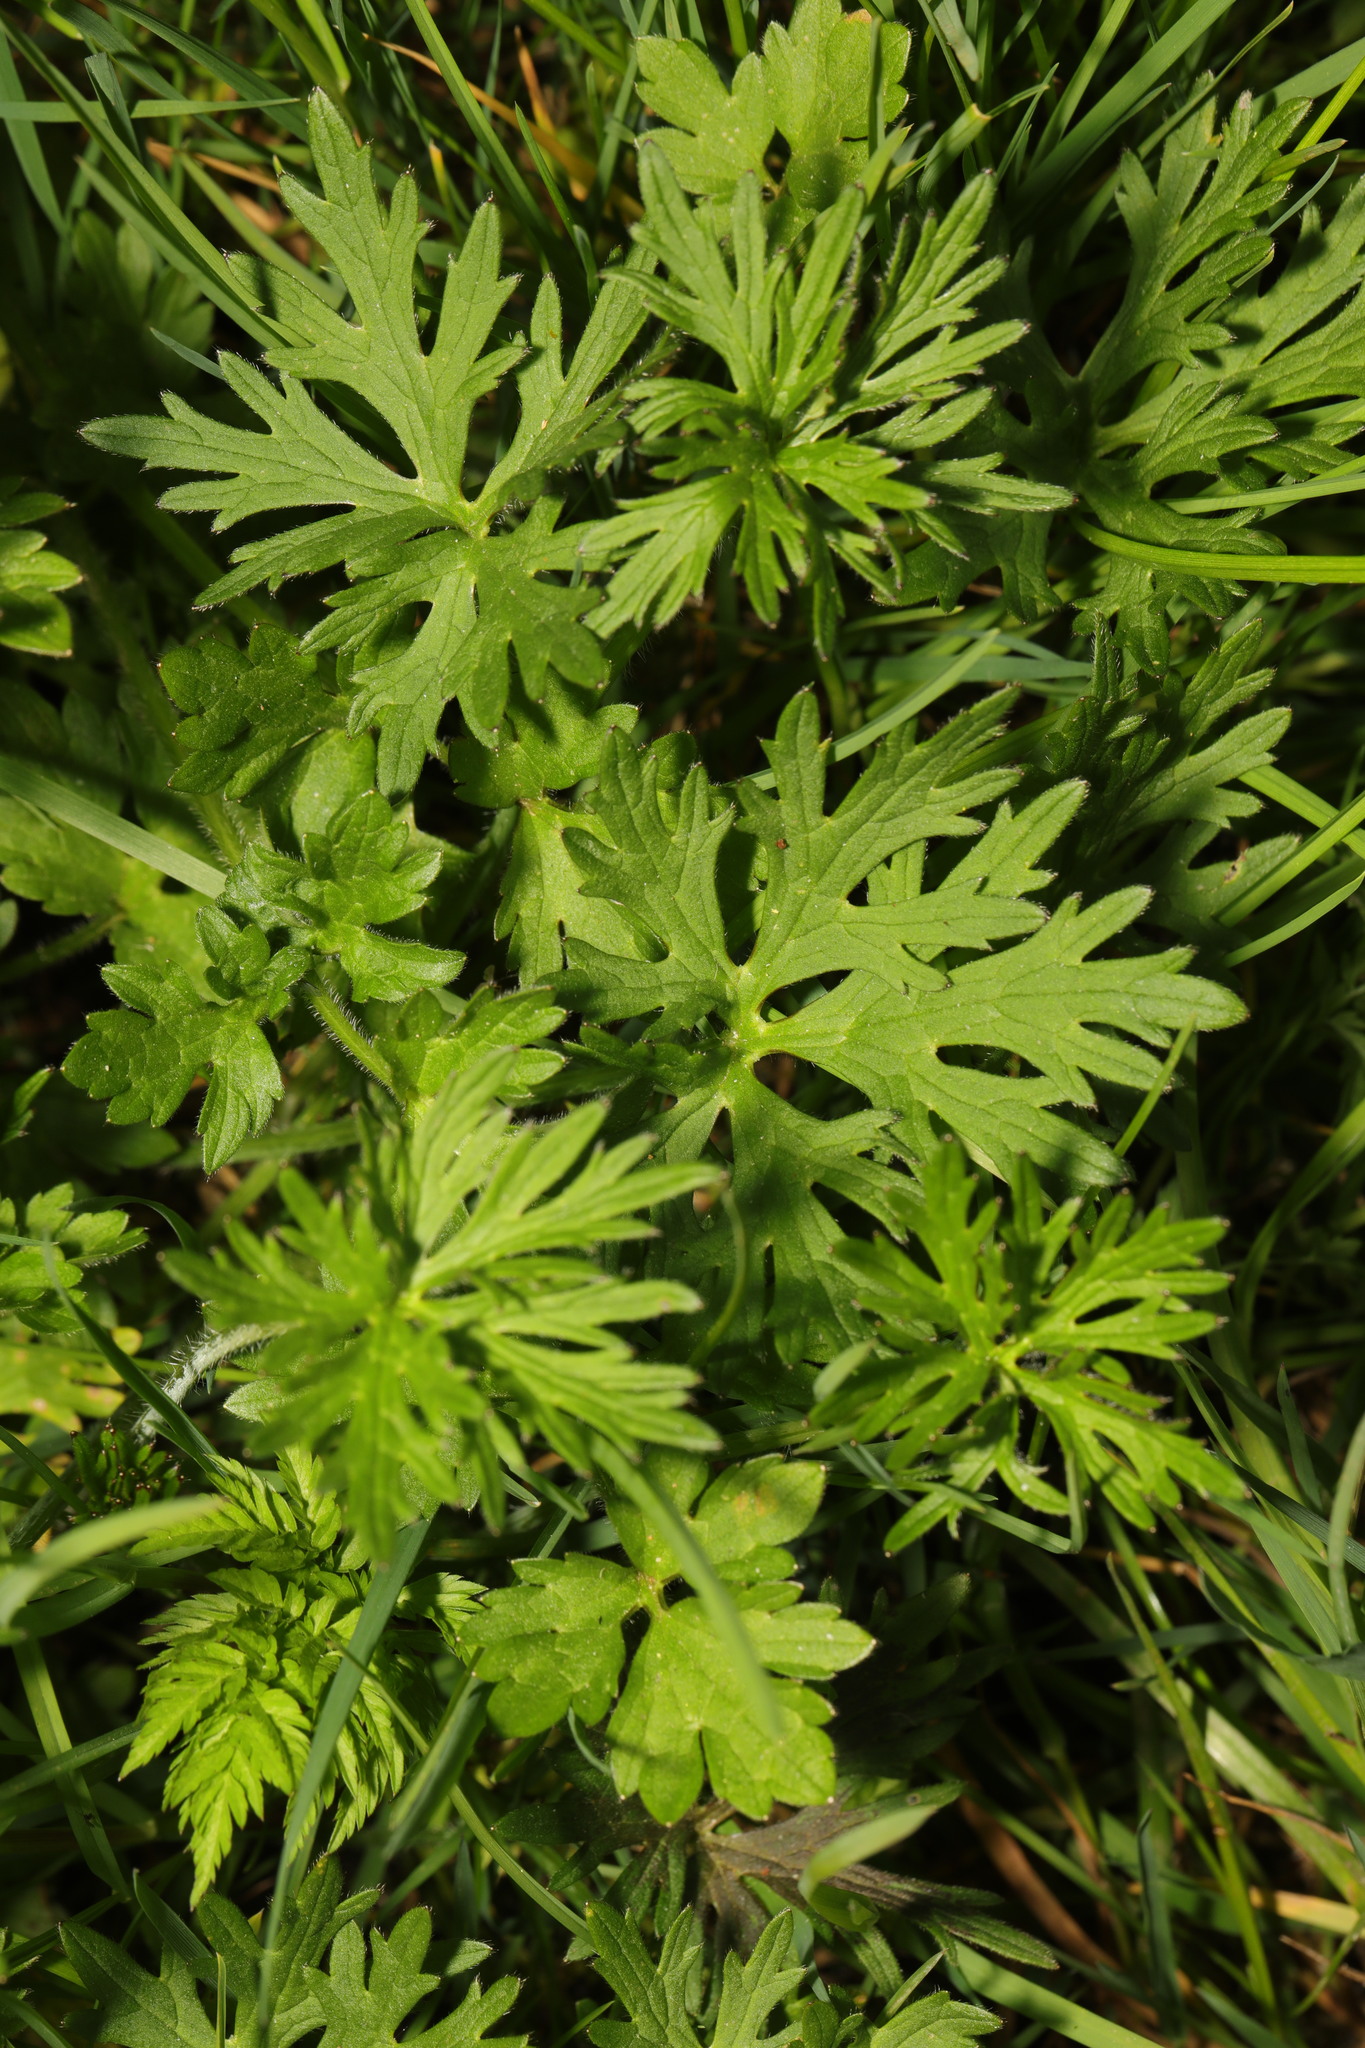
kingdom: Plantae
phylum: Tracheophyta
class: Magnoliopsida
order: Ranunculales
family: Ranunculaceae
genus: Ranunculus
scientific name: Ranunculus acris
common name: Meadow buttercup
